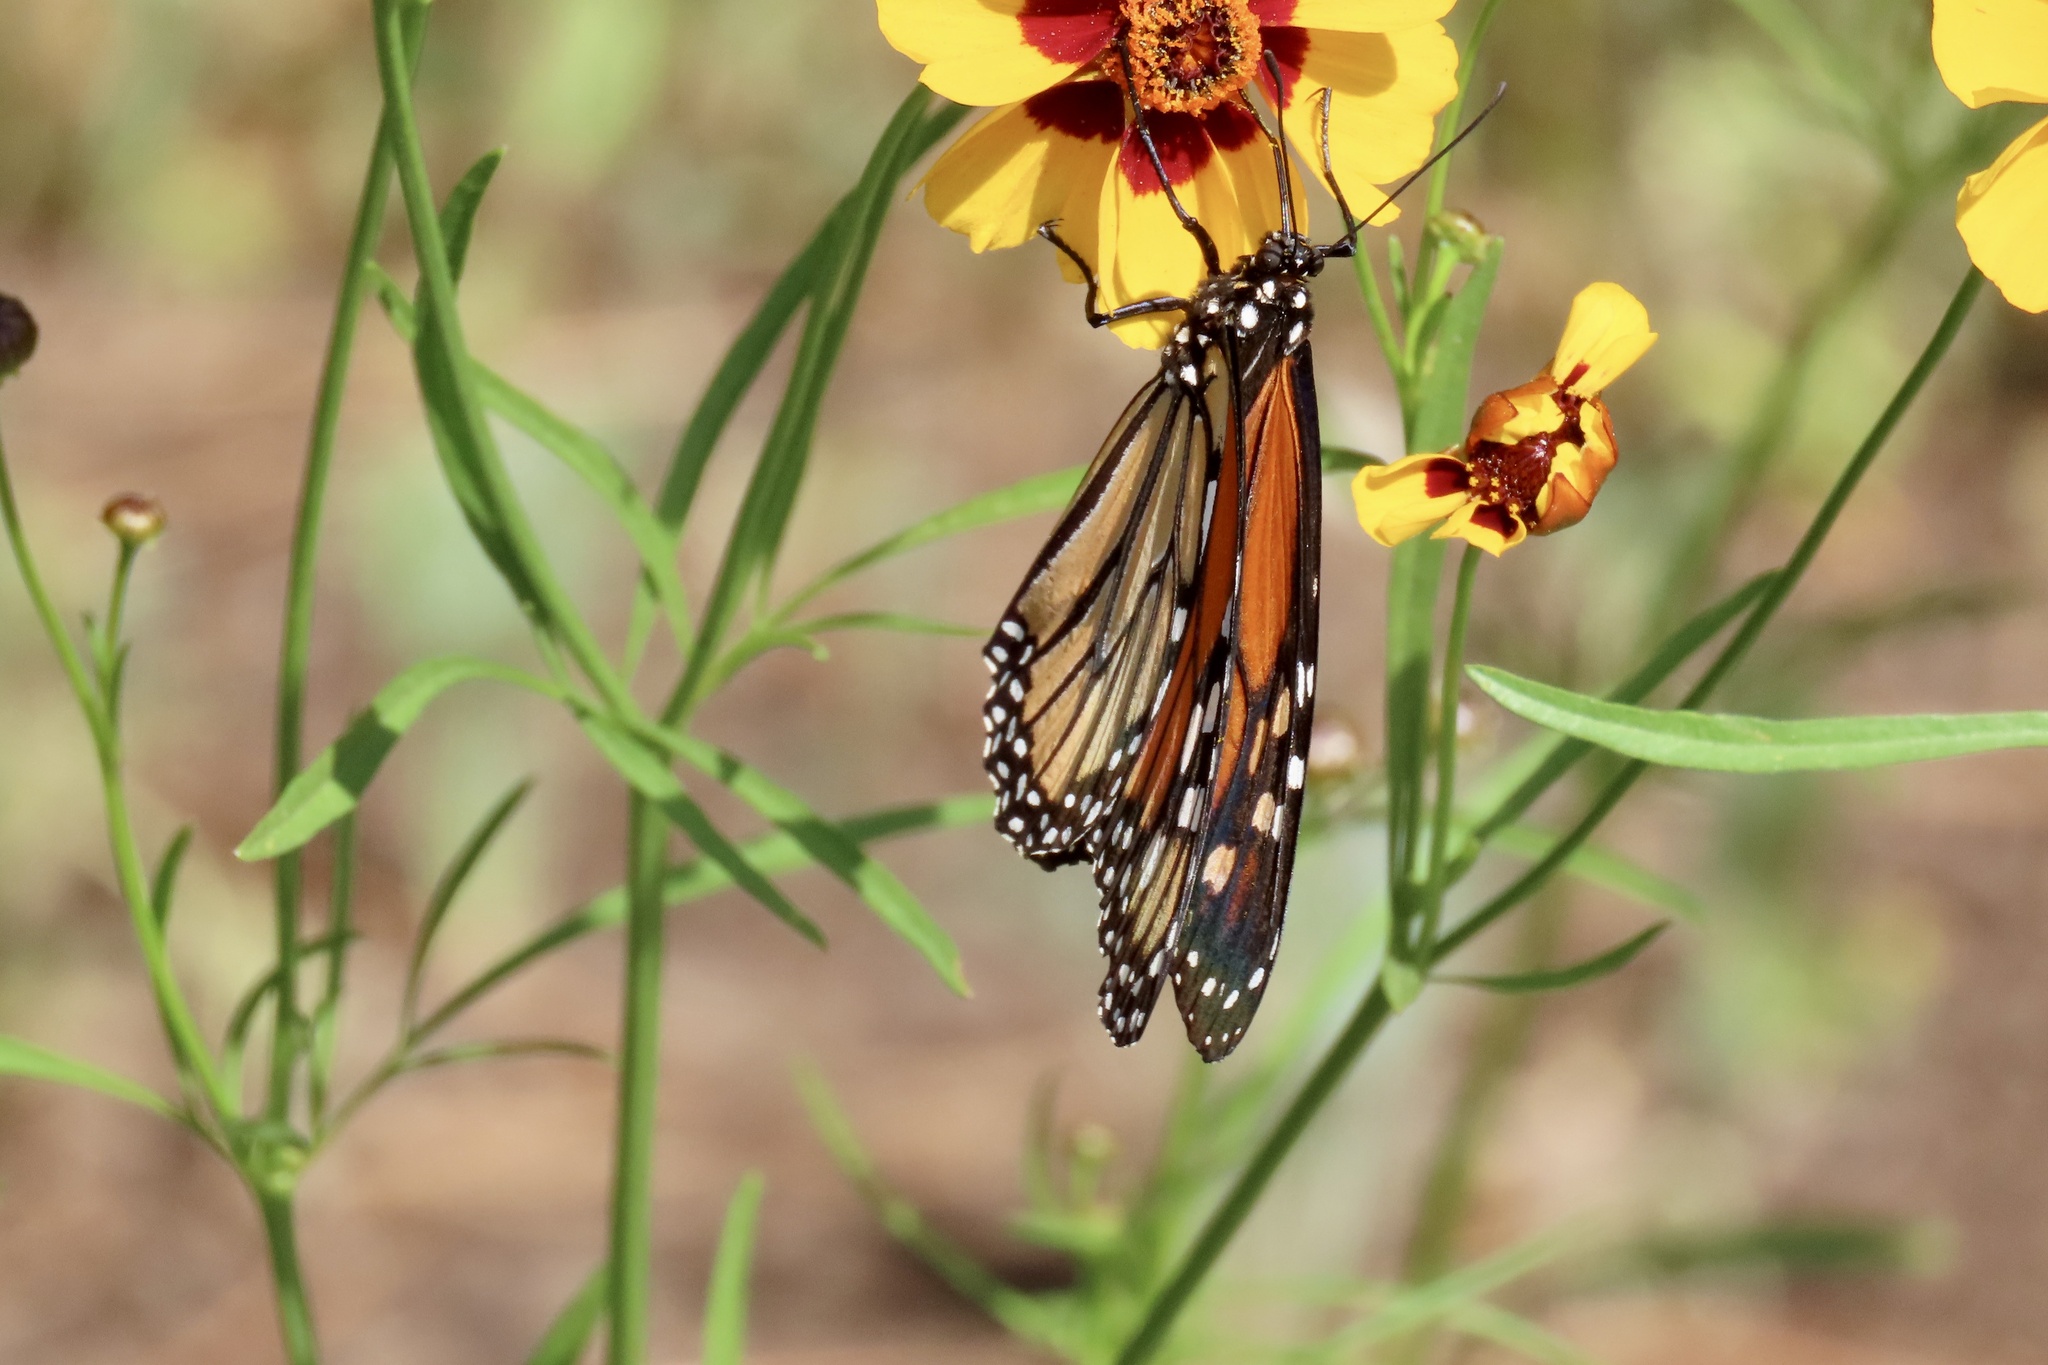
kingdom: Animalia
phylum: Arthropoda
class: Insecta
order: Lepidoptera
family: Nymphalidae
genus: Danaus
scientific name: Danaus plexippus
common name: Monarch
